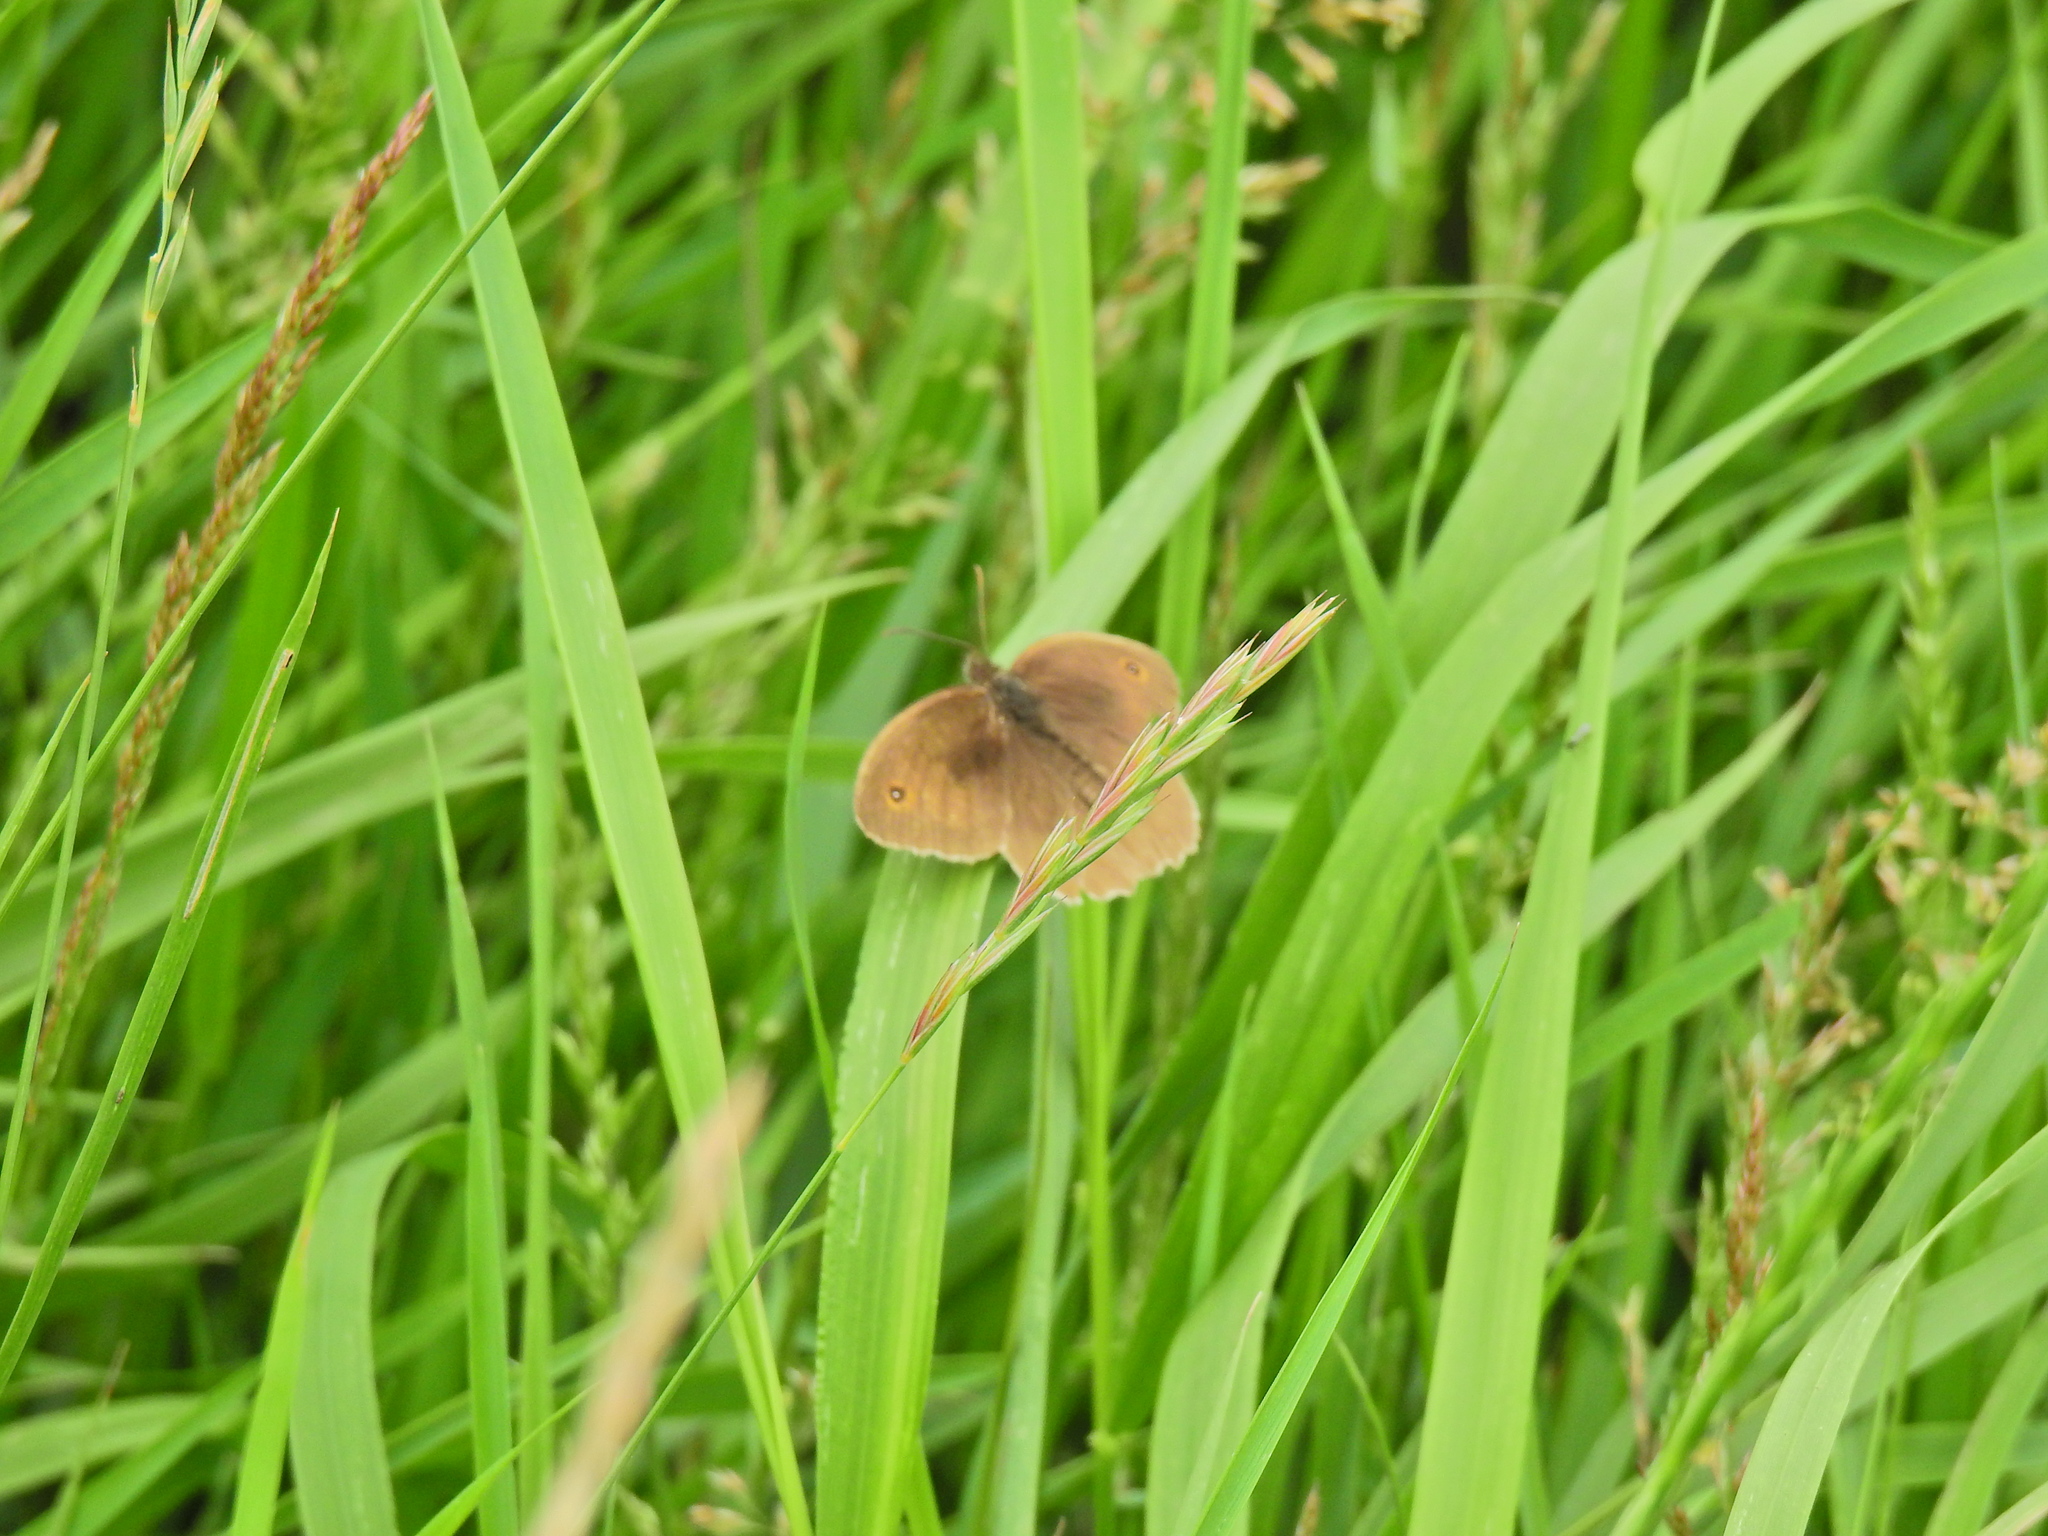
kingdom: Animalia
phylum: Arthropoda
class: Insecta
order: Lepidoptera
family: Nymphalidae
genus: Maniola
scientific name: Maniola jurtina
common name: Meadow brown
